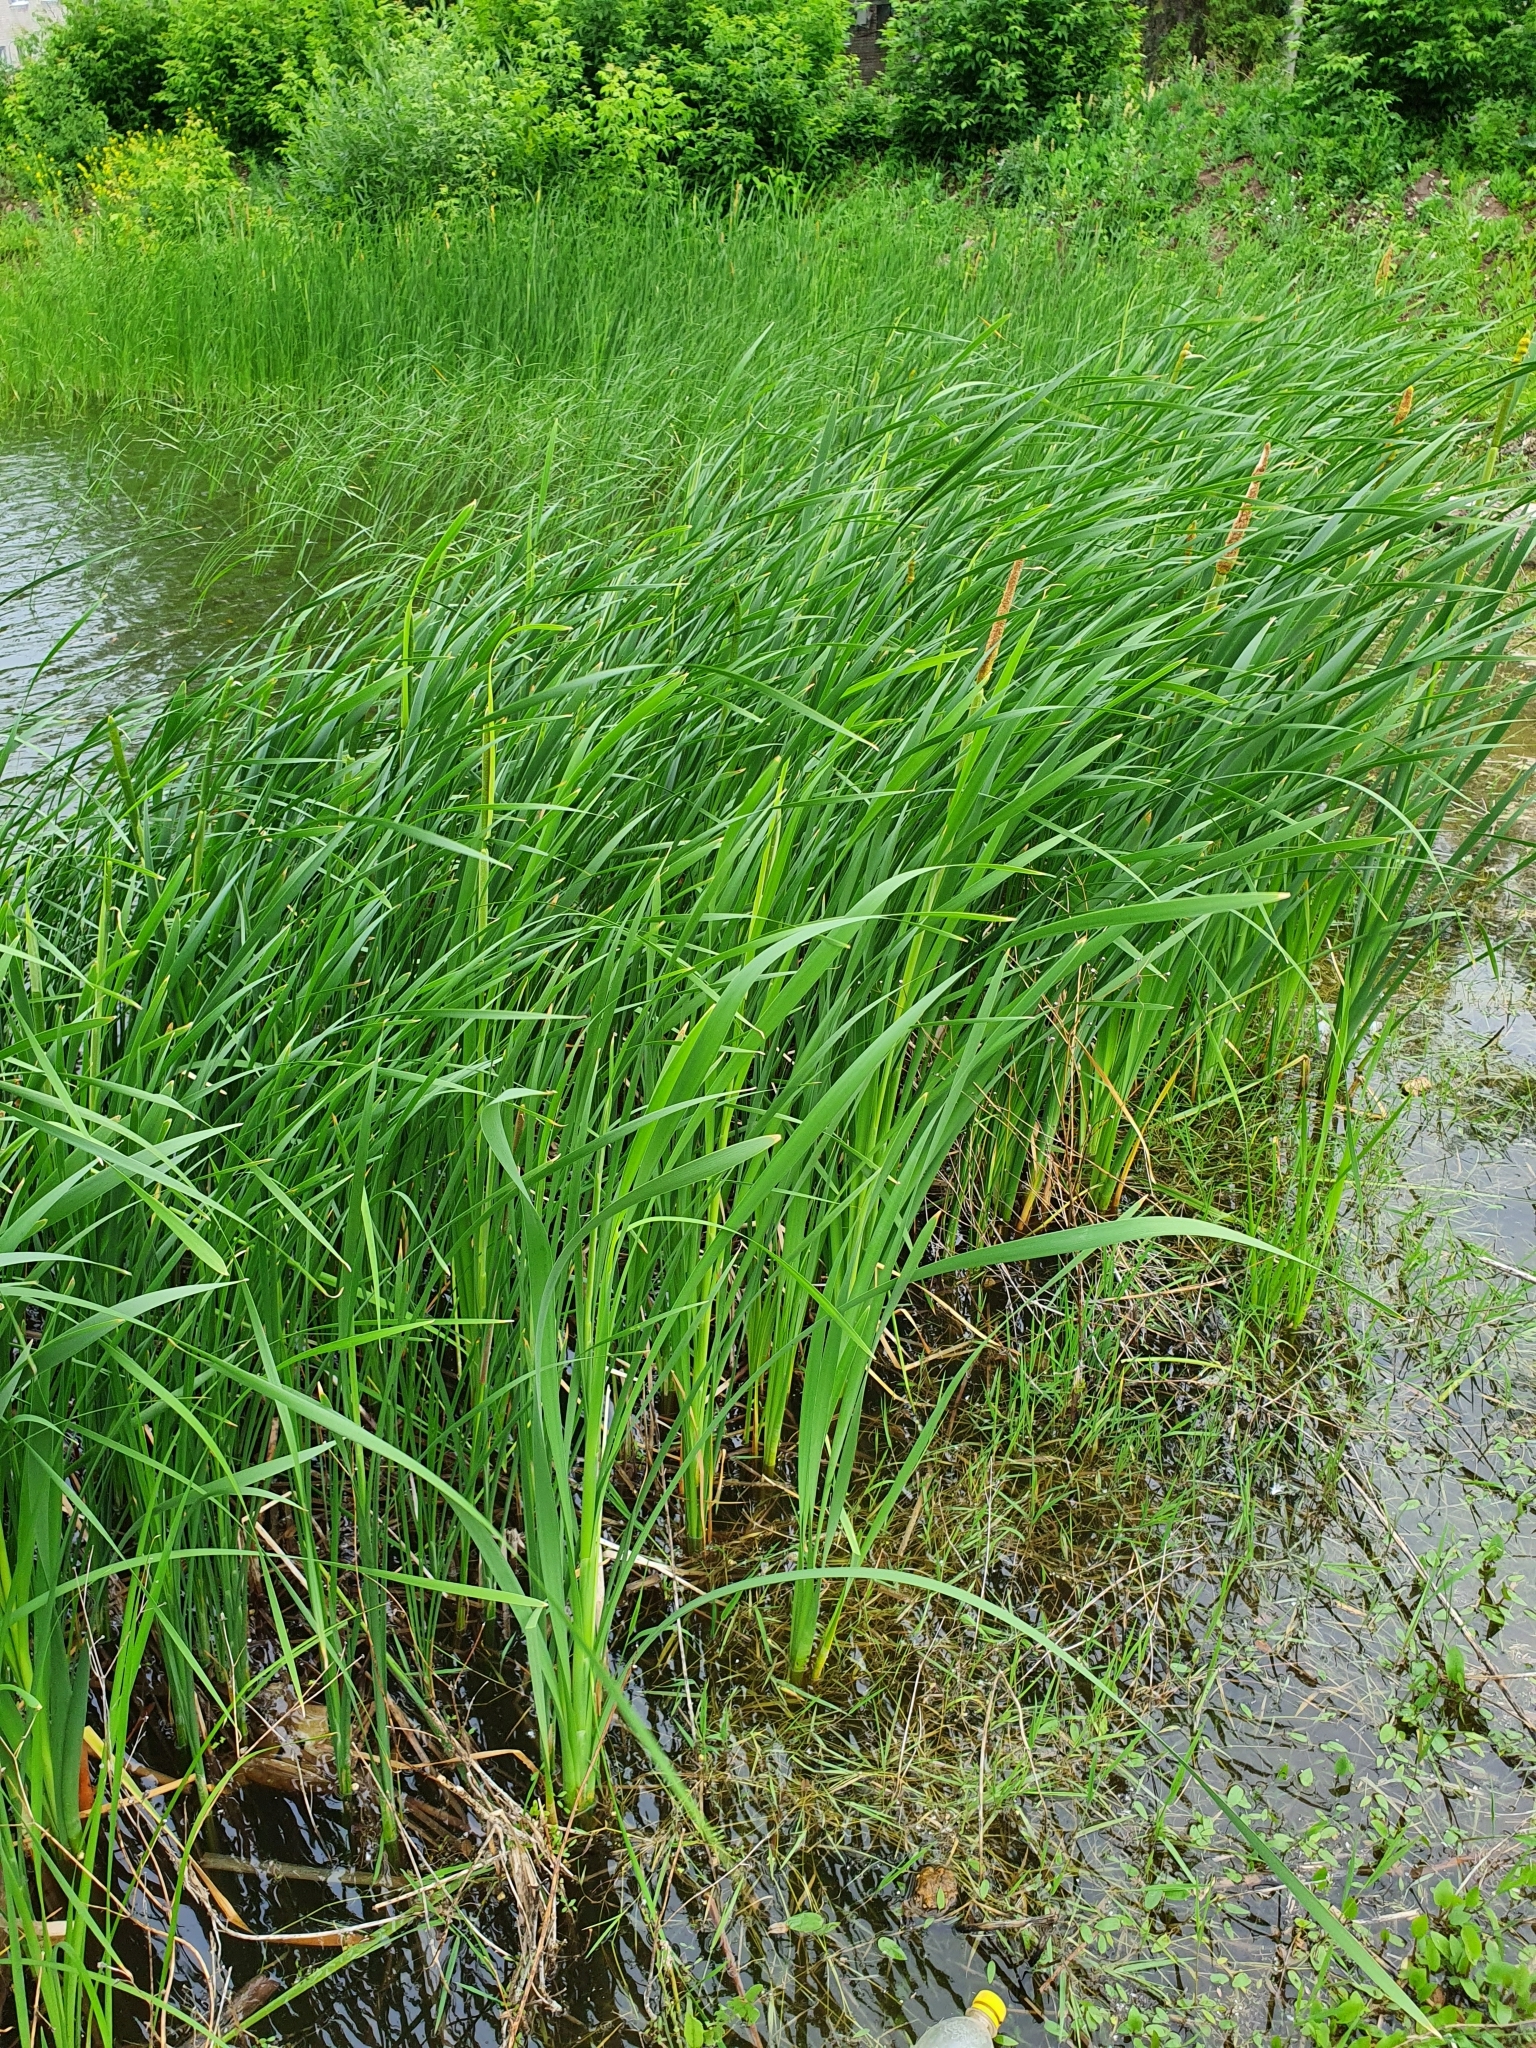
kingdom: Plantae
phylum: Tracheophyta
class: Liliopsida
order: Poales
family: Typhaceae
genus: Typha
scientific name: Typha latifolia
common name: Broadleaf cattail
